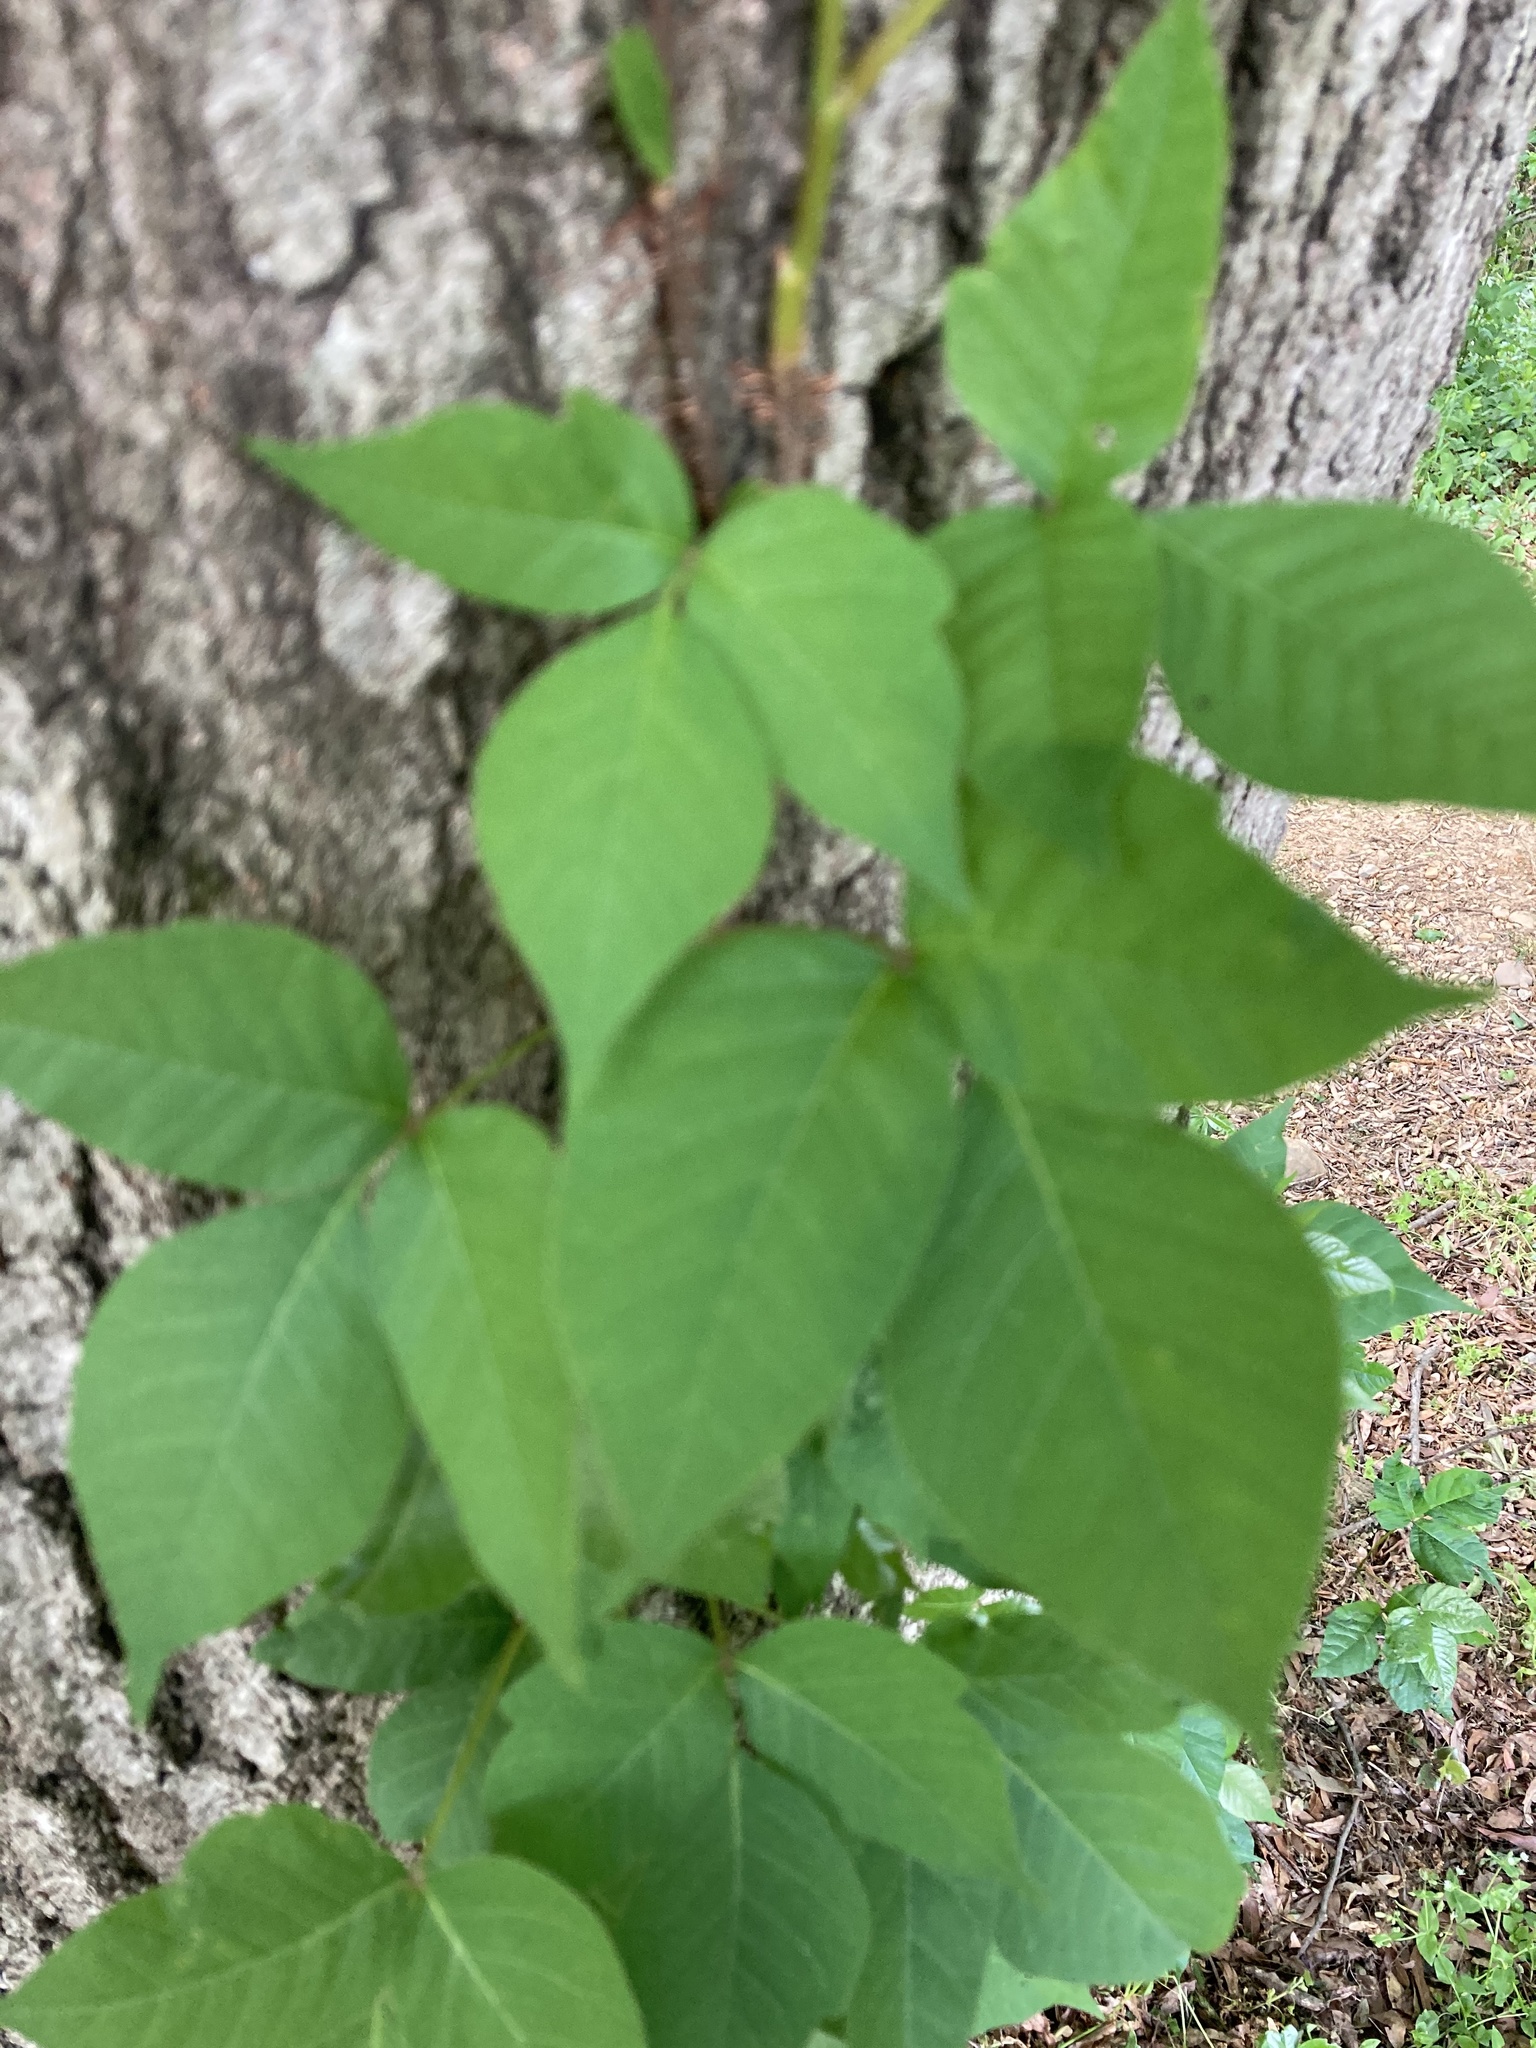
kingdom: Plantae
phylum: Tracheophyta
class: Magnoliopsida
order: Sapindales
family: Anacardiaceae
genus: Toxicodendron
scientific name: Toxicodendron radicans
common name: Poison ivy
